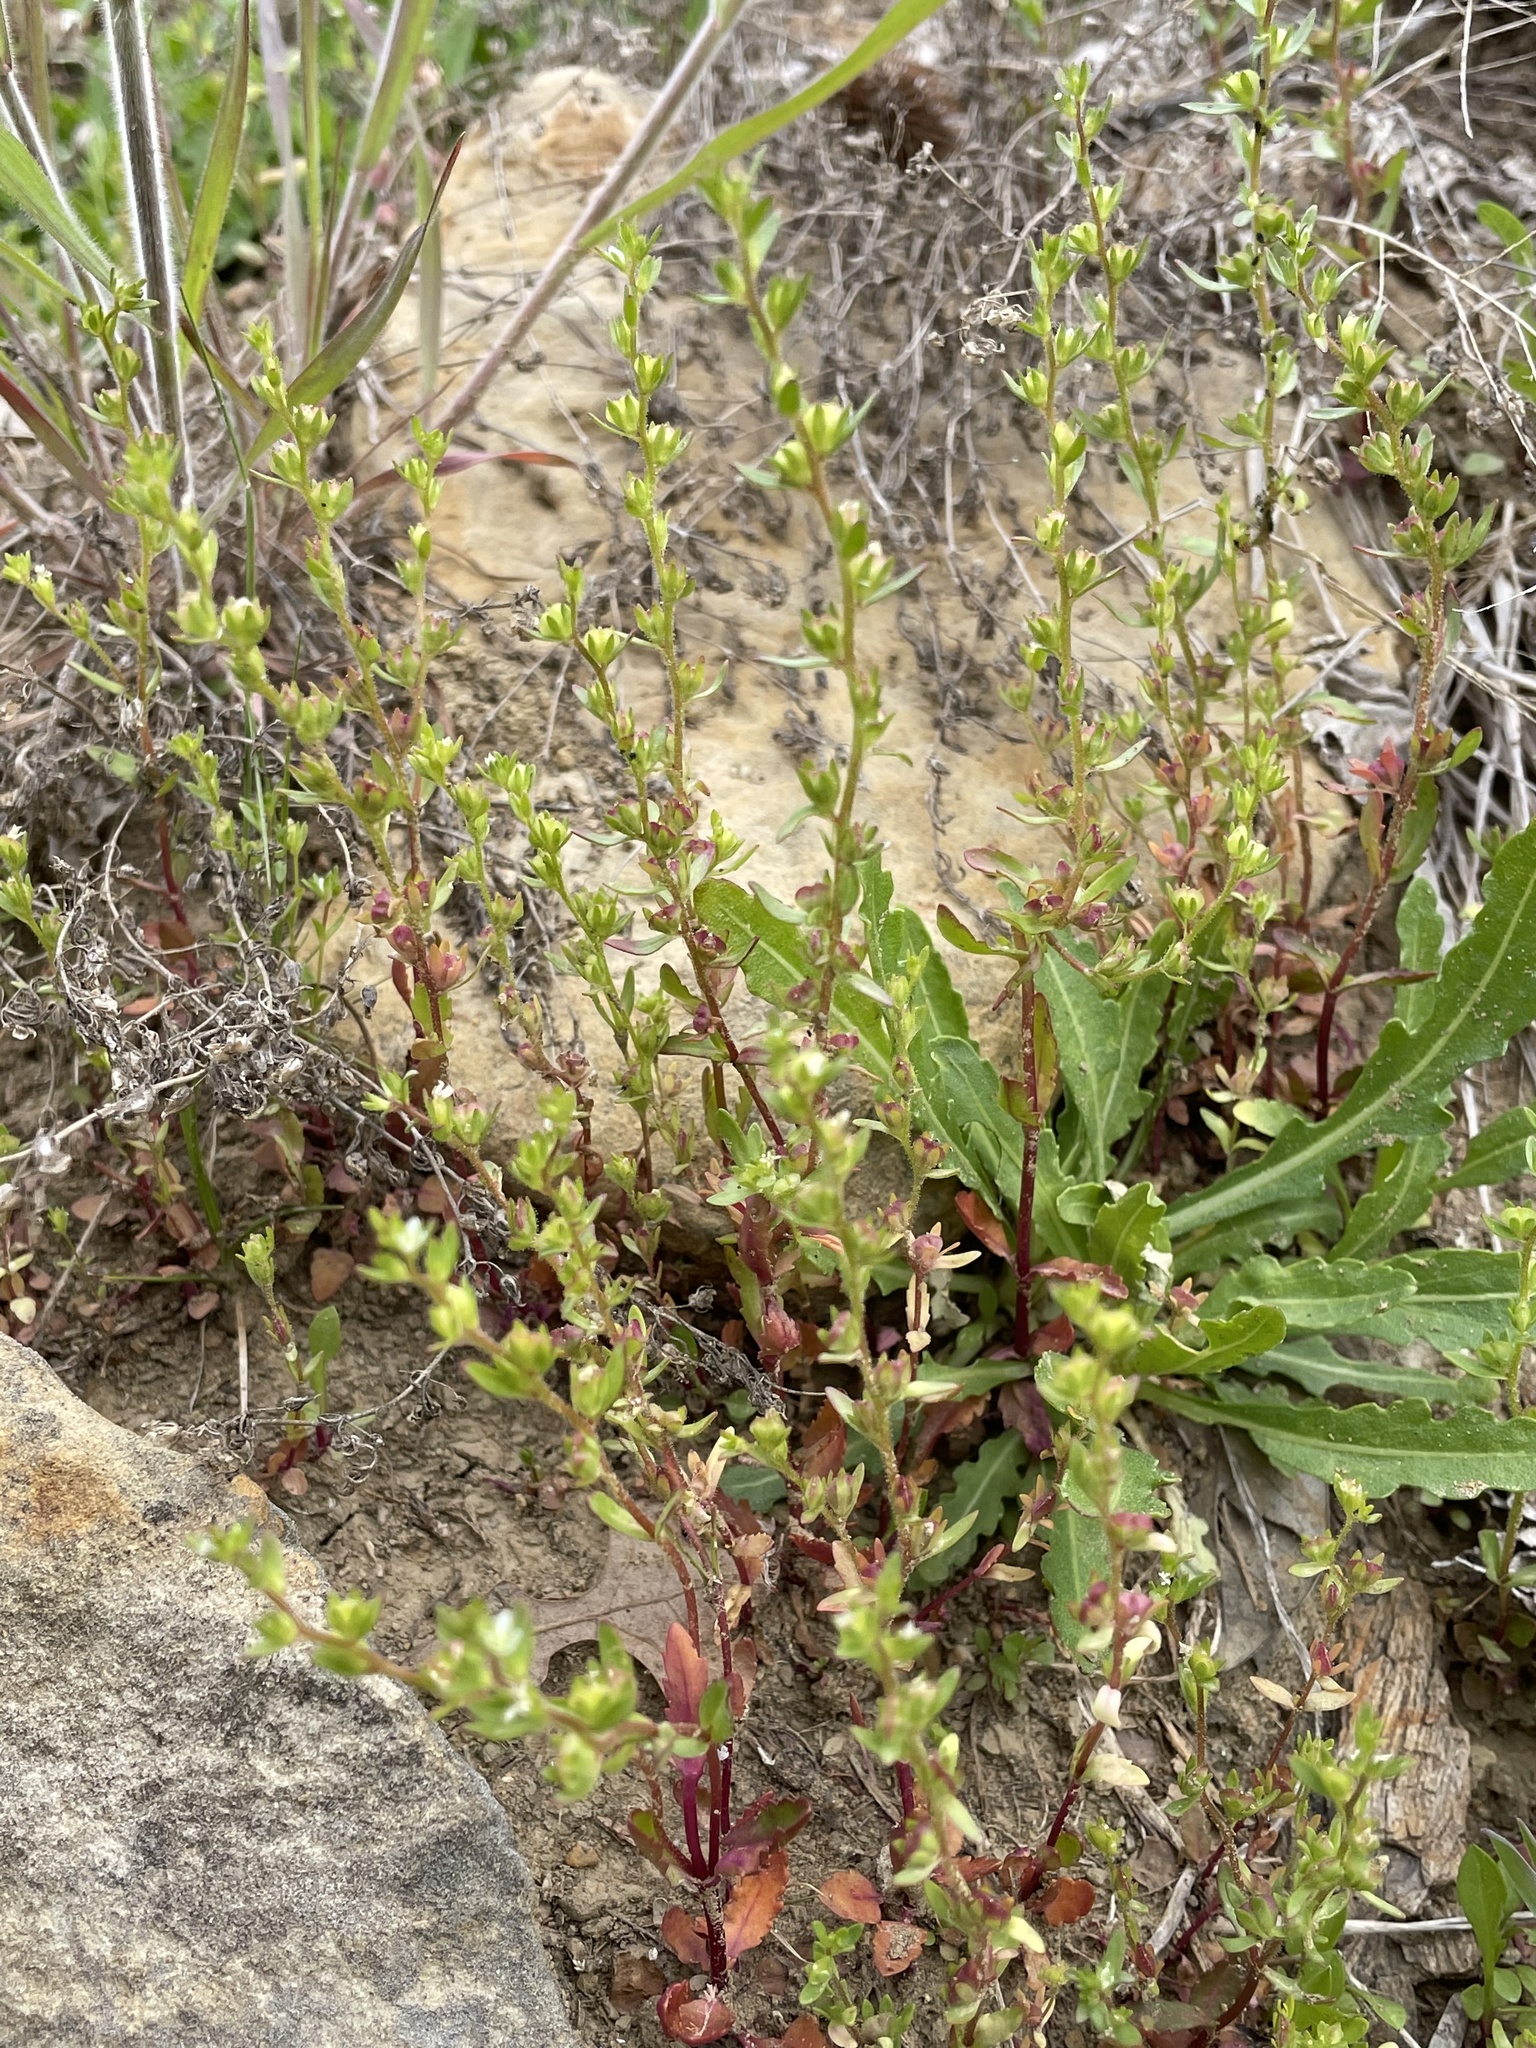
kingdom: Plantae
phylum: Tracheophyta
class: Magnoliopsida
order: Lamiales
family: Plantaginaceae
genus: Veronica
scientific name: Veronica peregrina
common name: Neckweed
